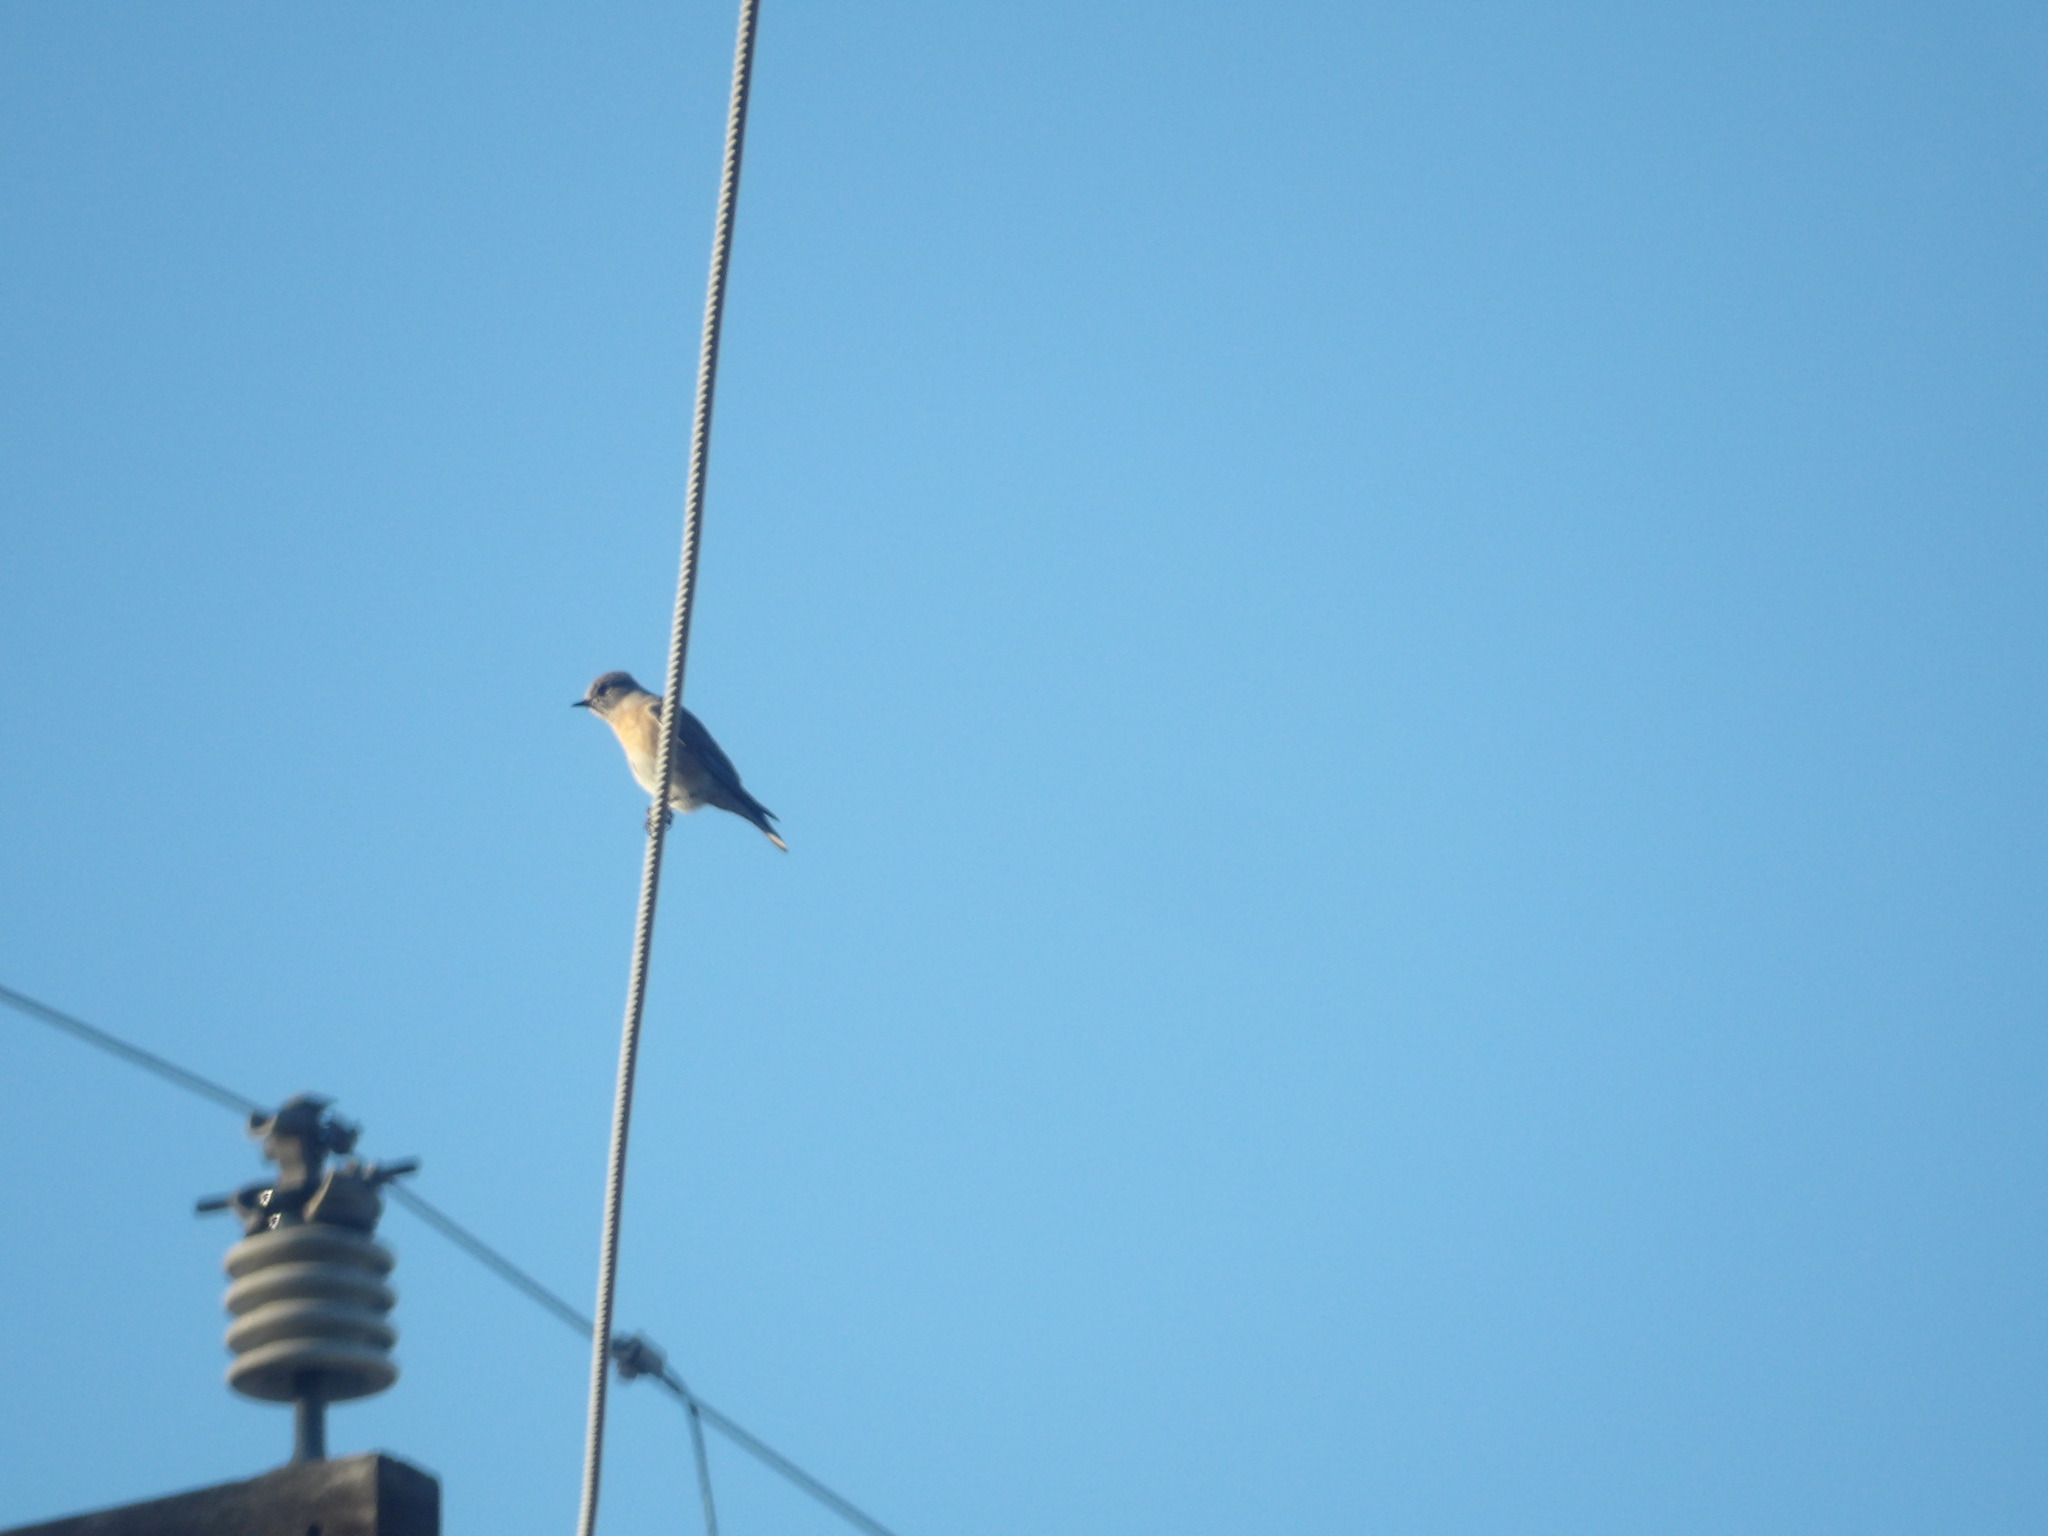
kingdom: Animalia
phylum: Chordata
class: Aves
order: Passeriformes
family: Turdidae
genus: Sialia
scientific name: Sialia mexicana
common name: Western bluebird
